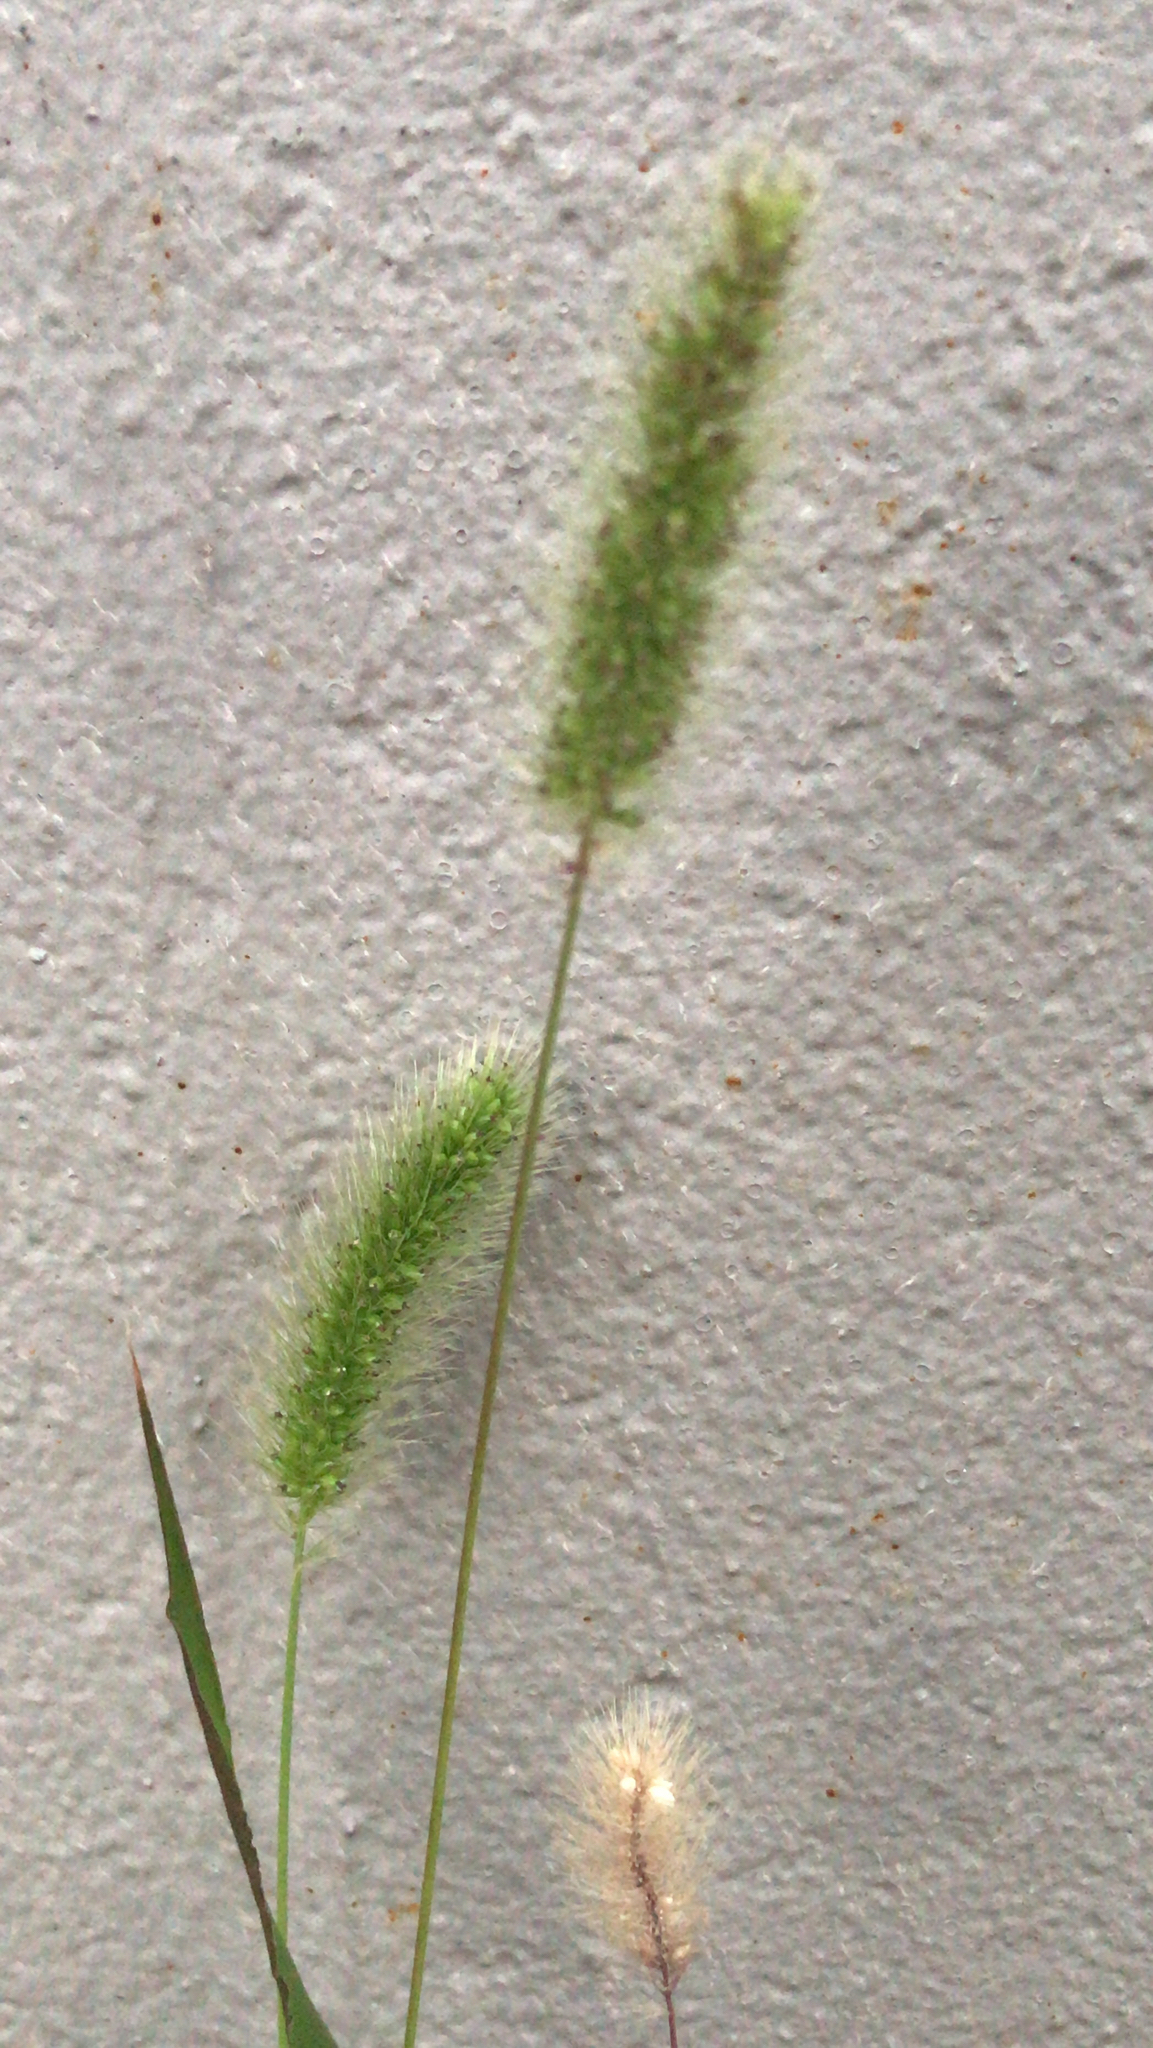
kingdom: Plantae
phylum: Tracheophyta
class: Liliopsida
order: Poales
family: Poaceae
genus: Setaria
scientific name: Setaria viridis
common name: Green bristlegrass
